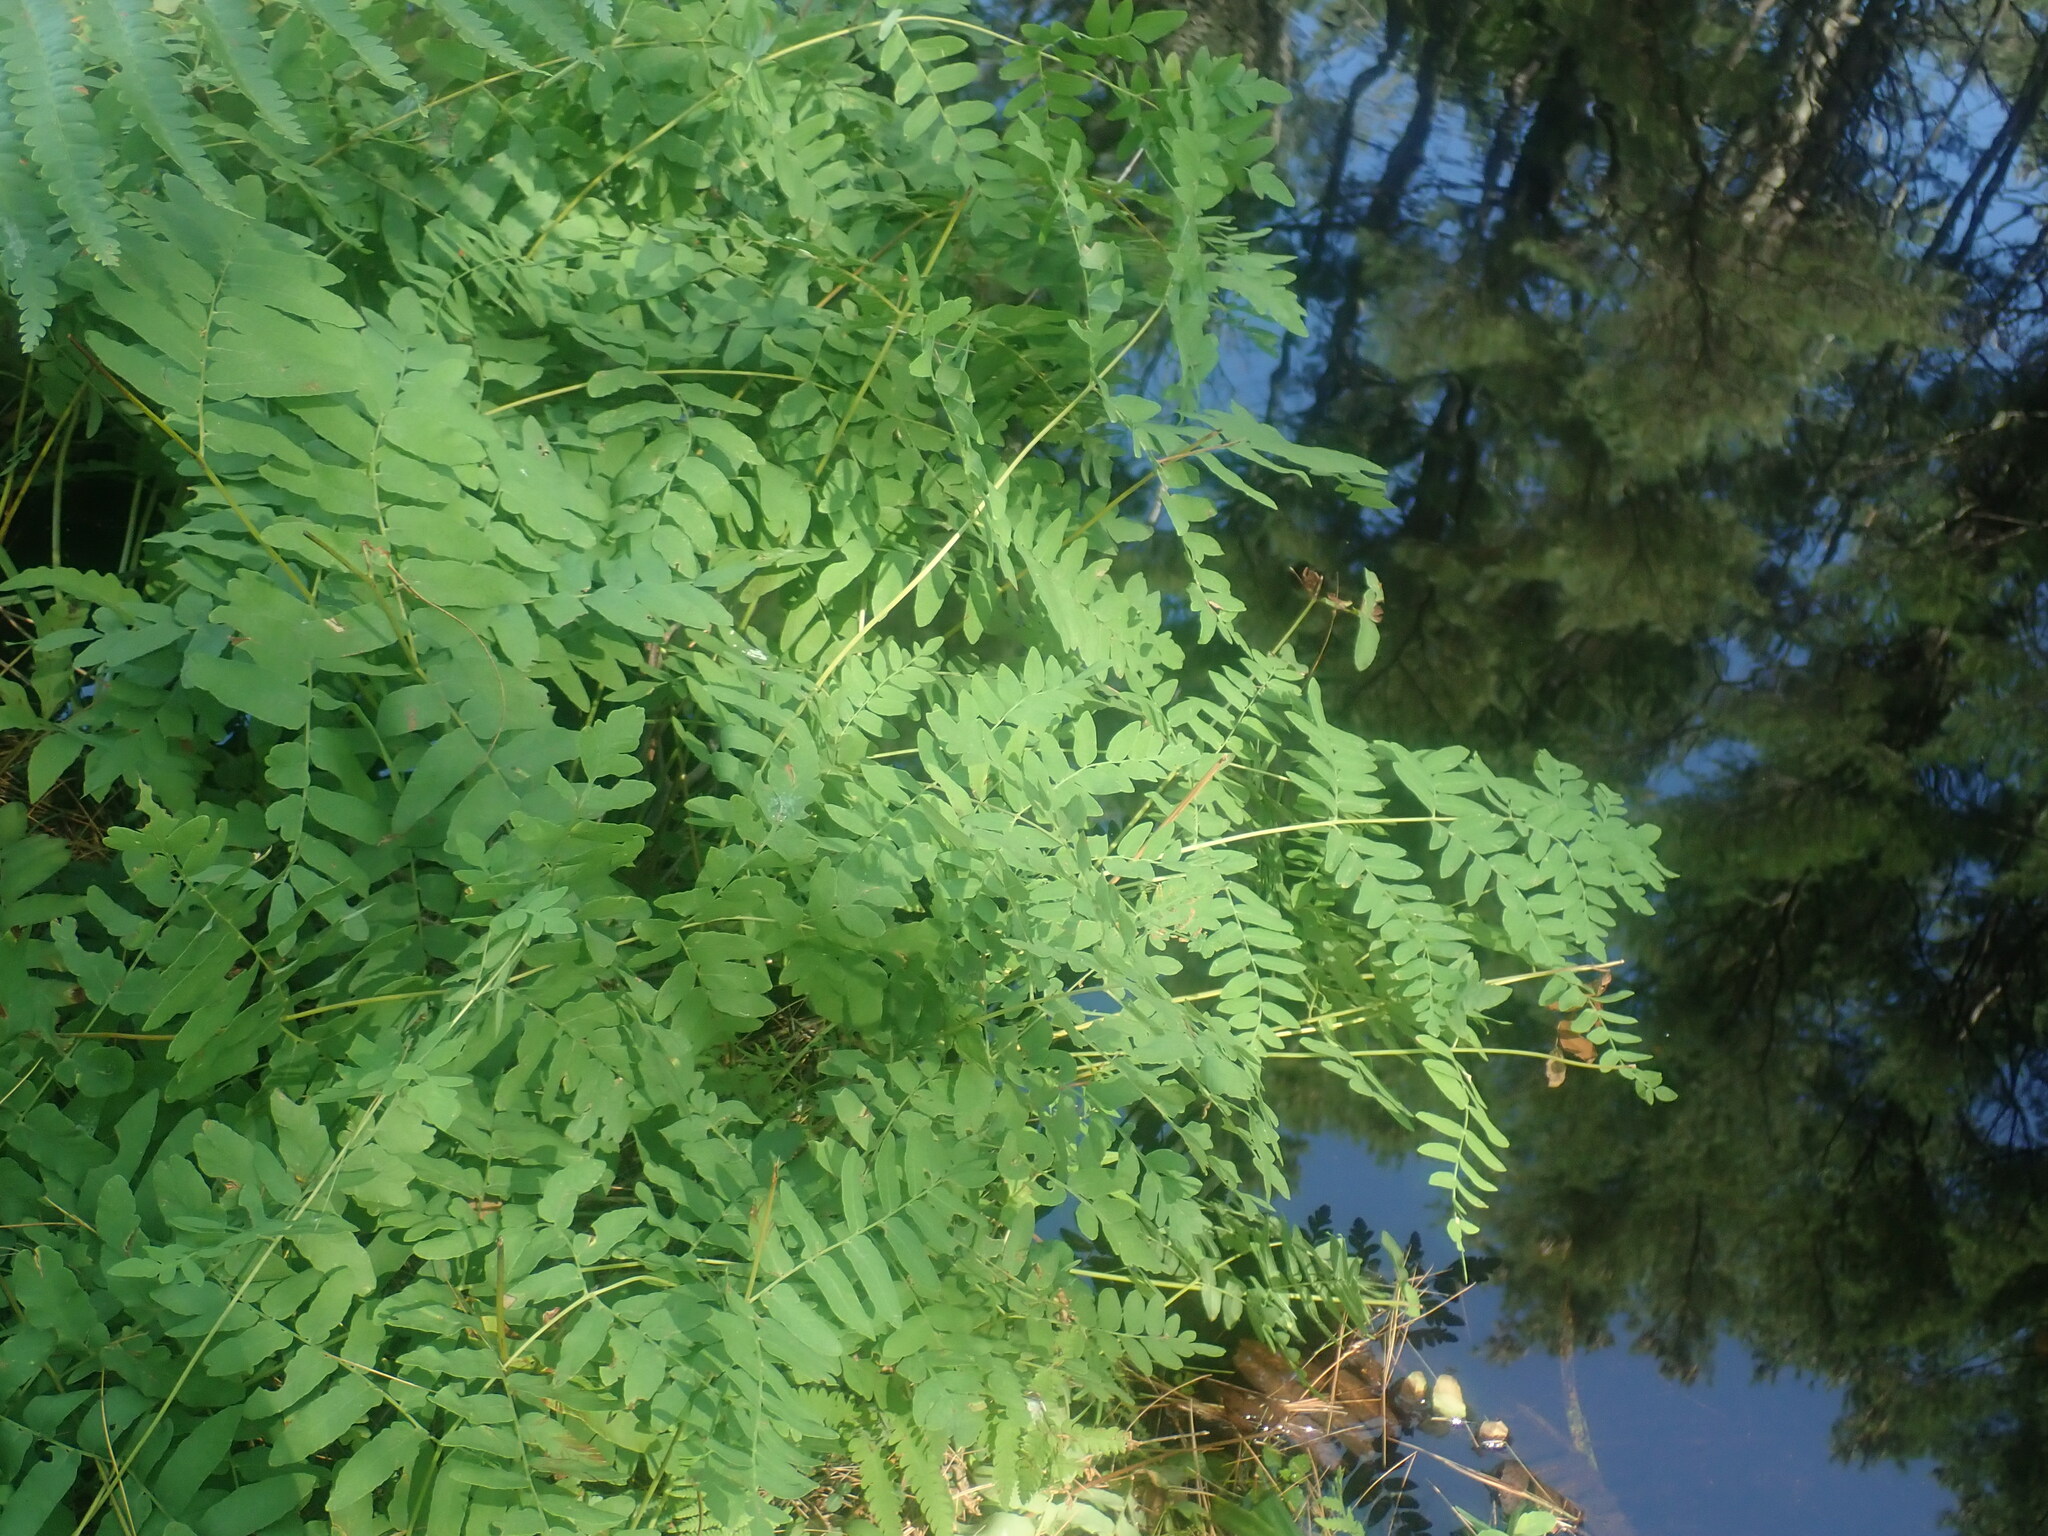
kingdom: Plantae
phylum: Tracheophyta
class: Polypodiopsida
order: Osmundales
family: Osmundaceae
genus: Osmunda
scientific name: Osmunda spectabilis
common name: American royal fern
